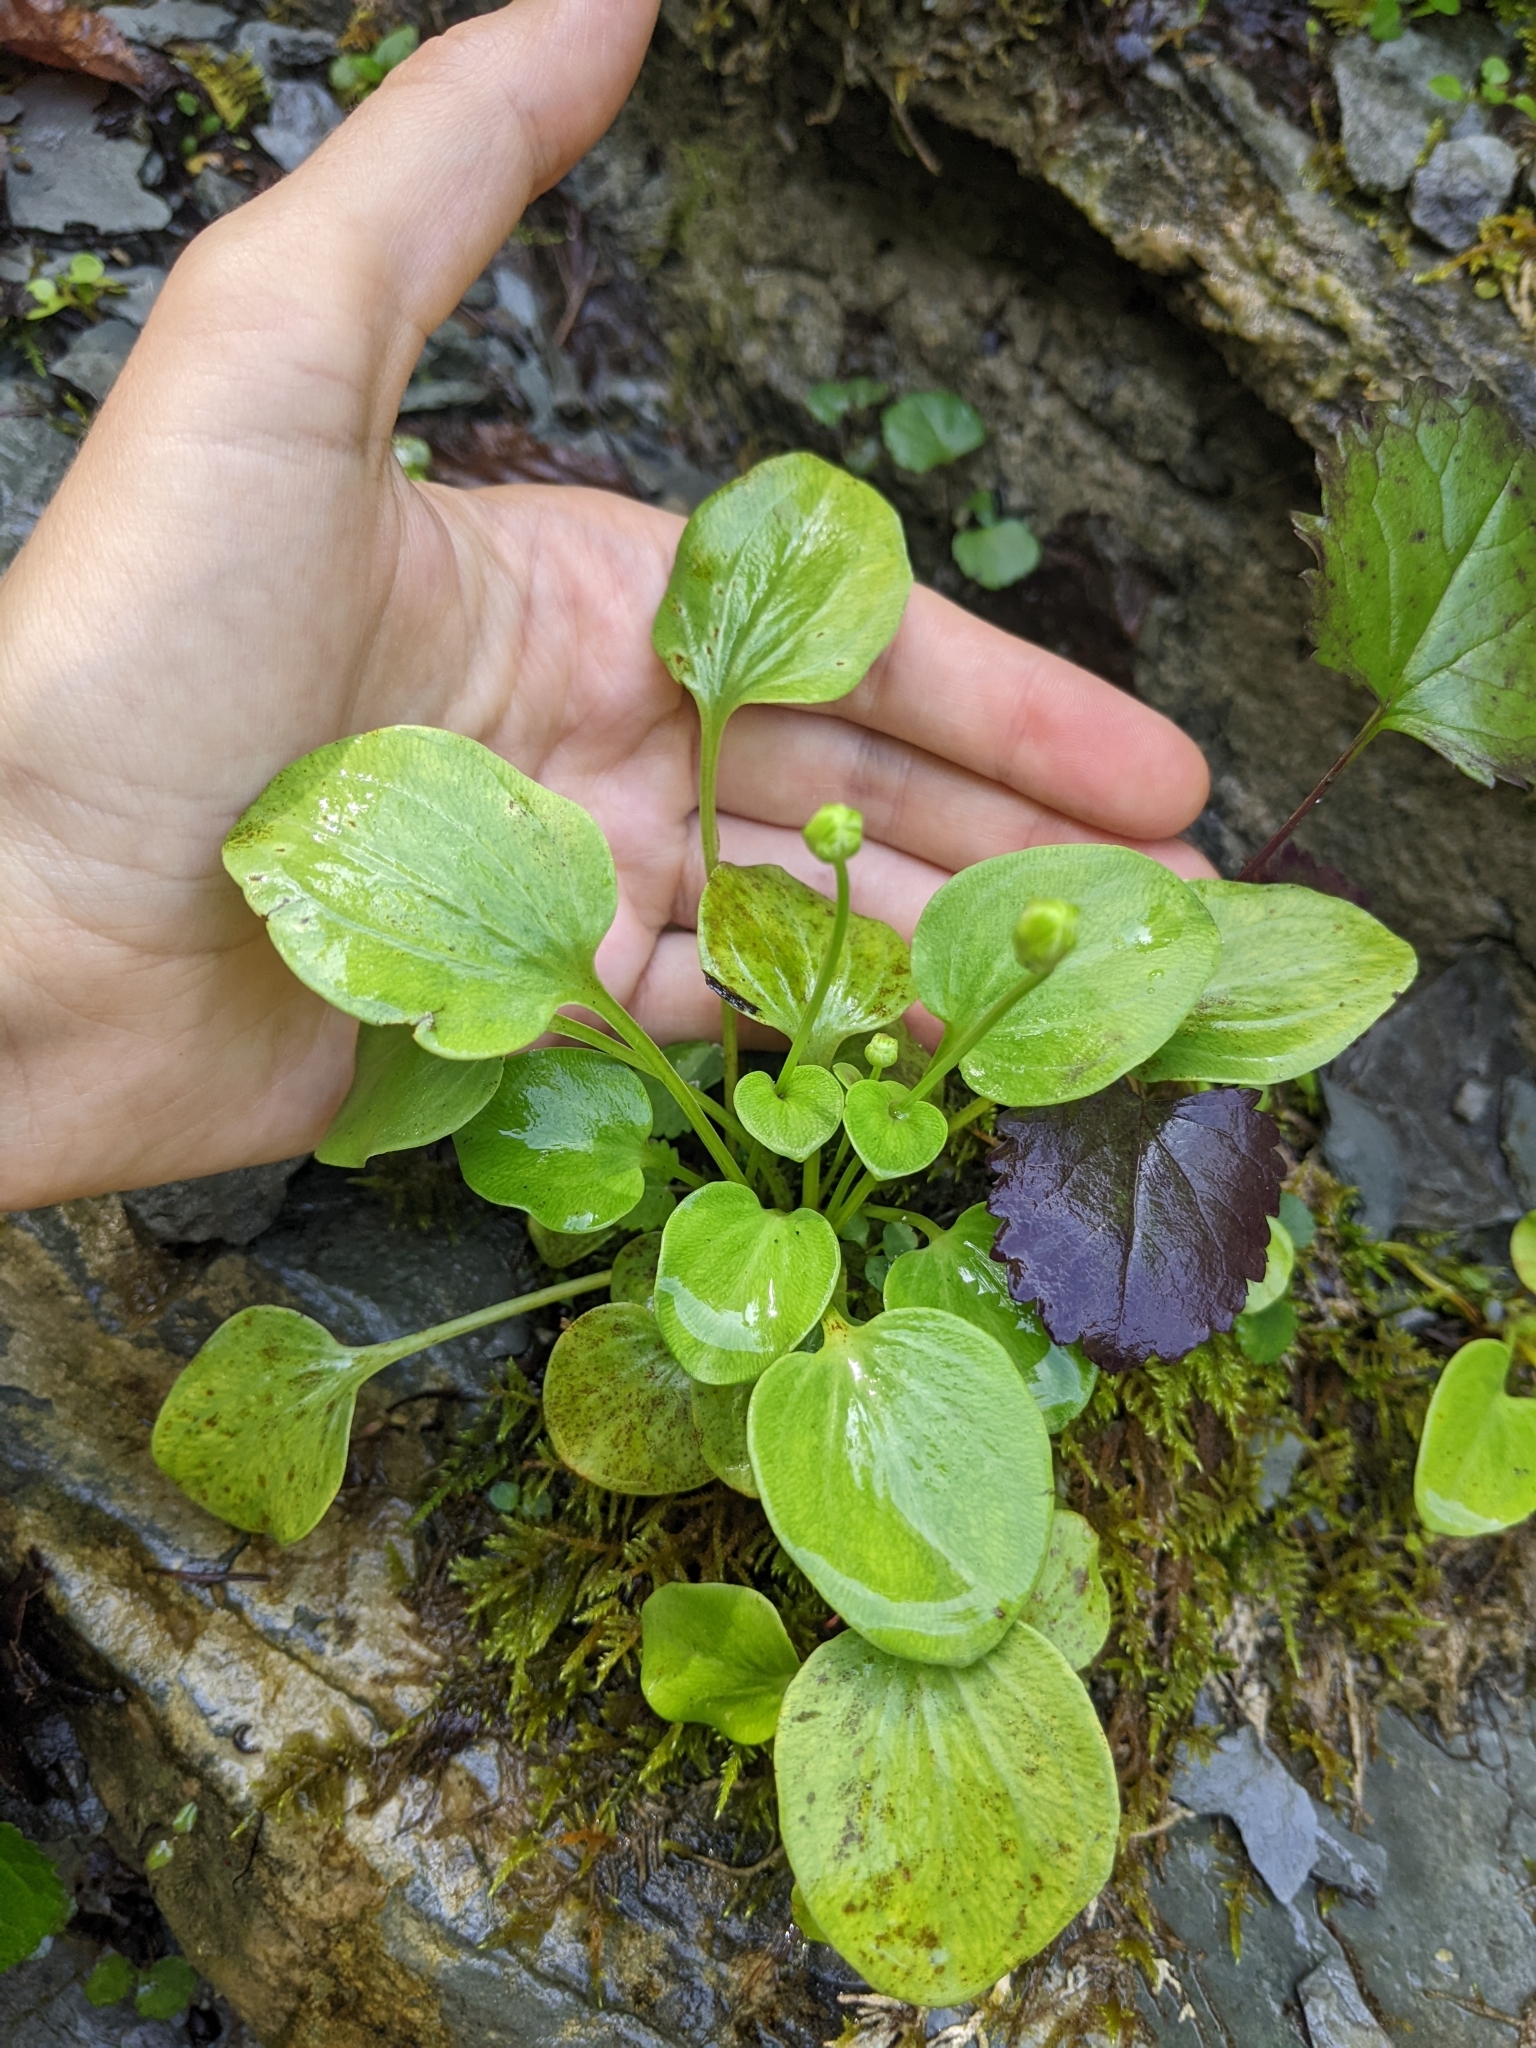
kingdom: Plantae
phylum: Tracheophyta
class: Magnoliopsida
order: Celastrales
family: Parnassiaceae
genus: Parnassia
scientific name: Parnassia glauca
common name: American grass-of-parnassus
